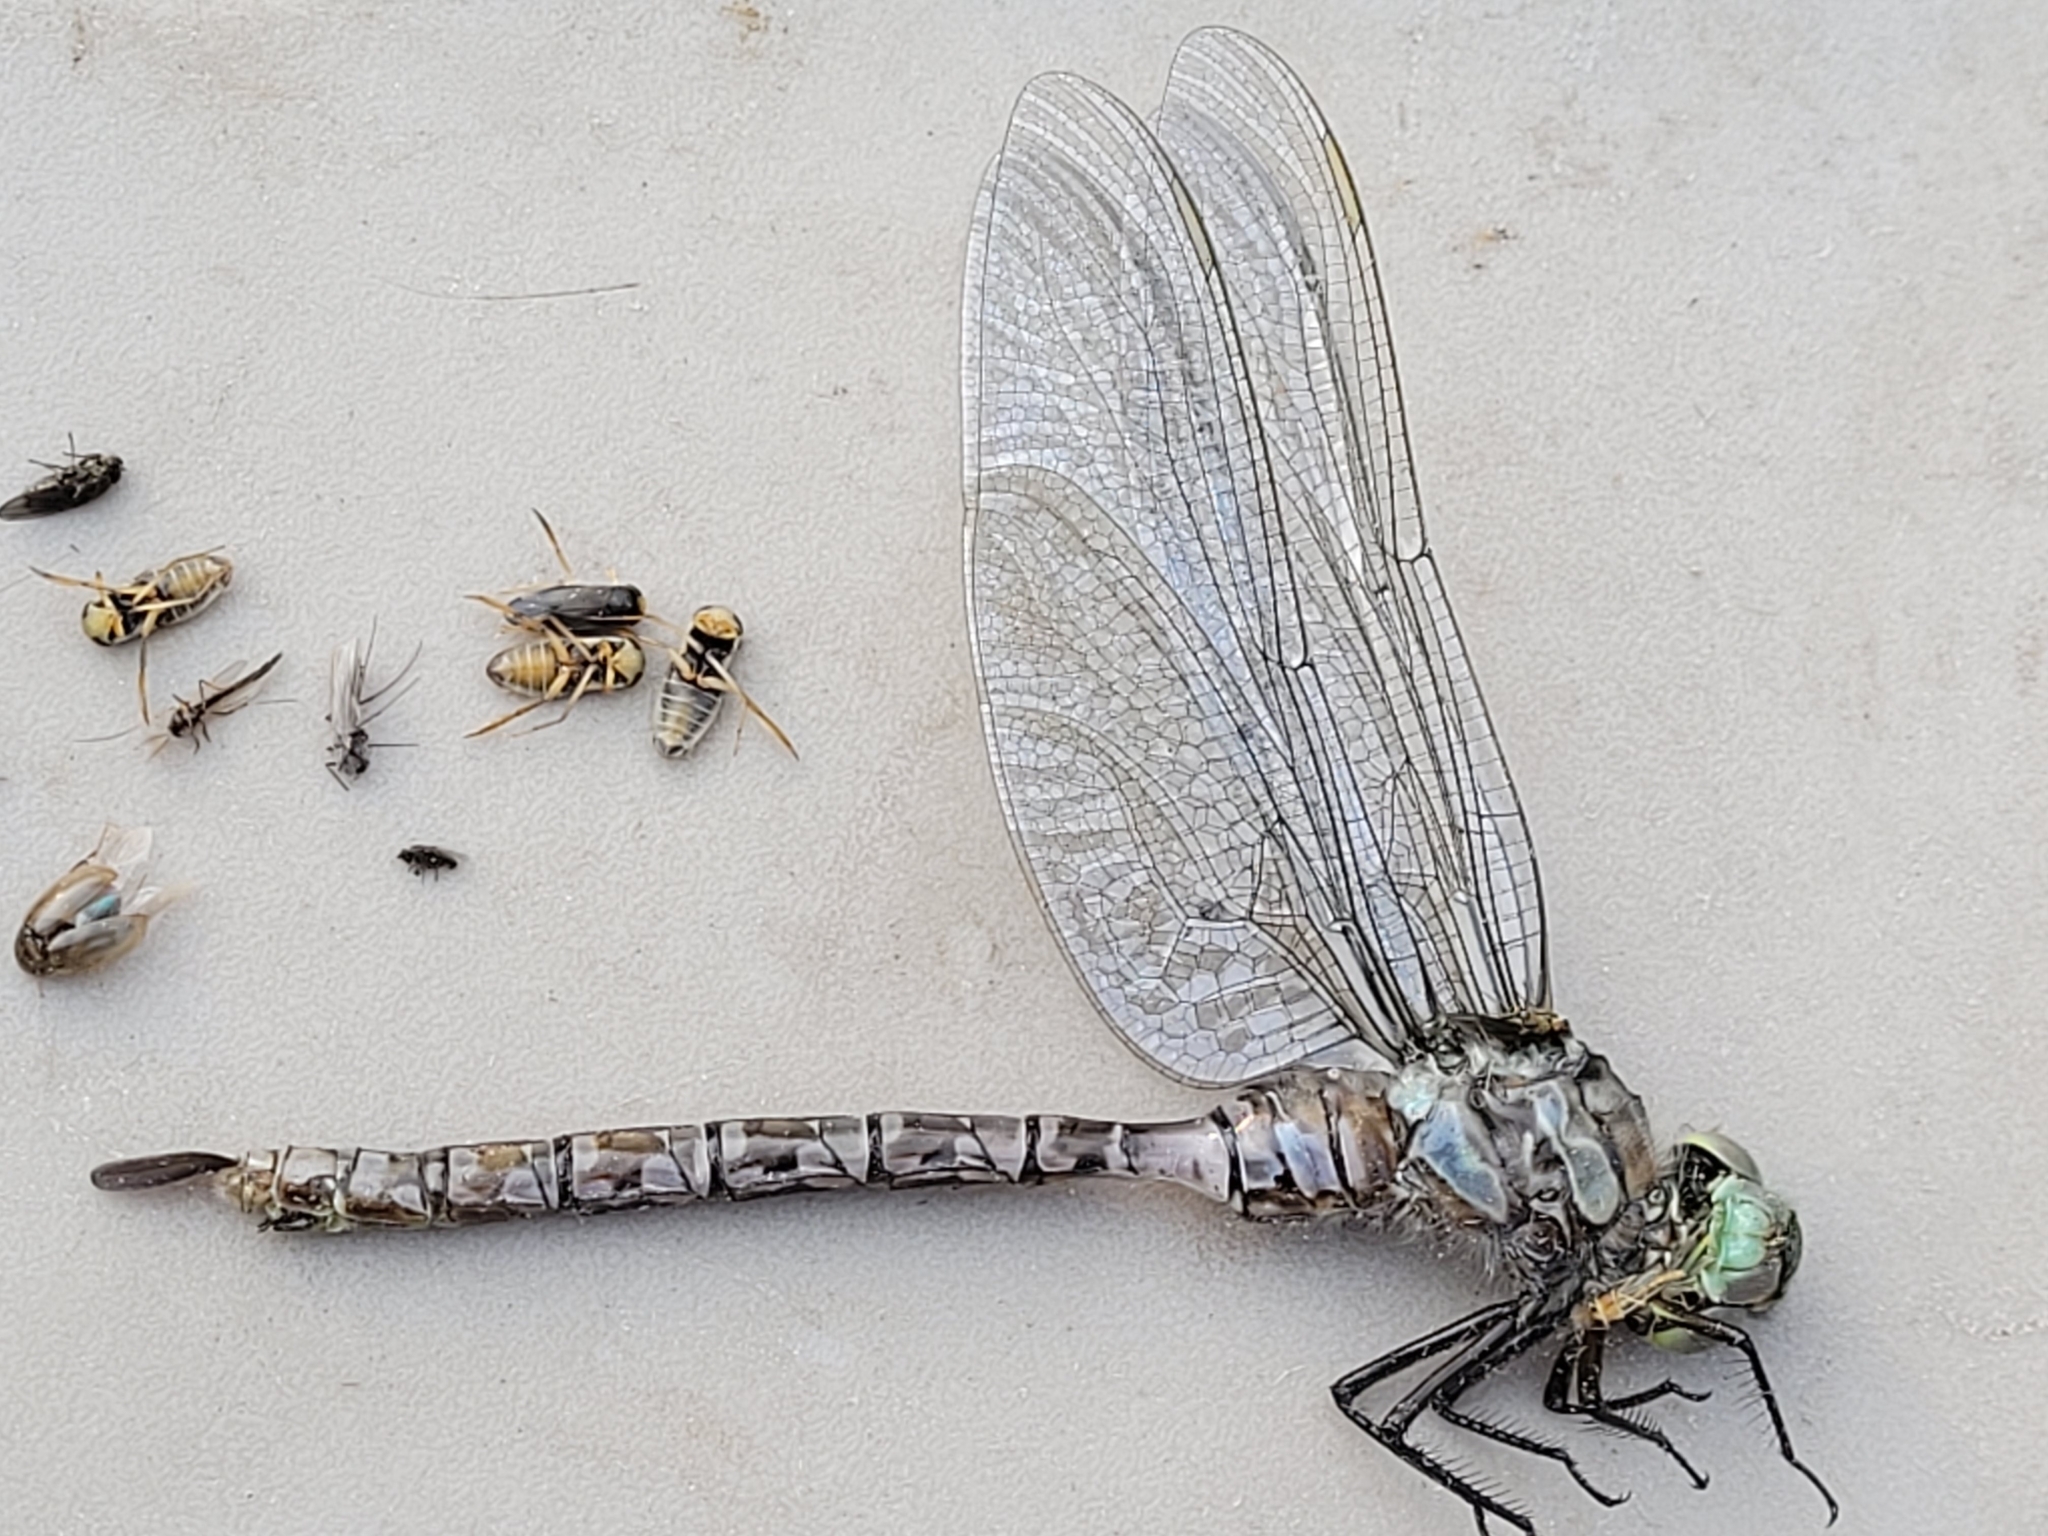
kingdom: Animalia
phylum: Arthropoda
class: Insecta
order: Odonata
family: Aeshnidae
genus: Aeshna
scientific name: Aeshna eremita
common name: Lake darner
